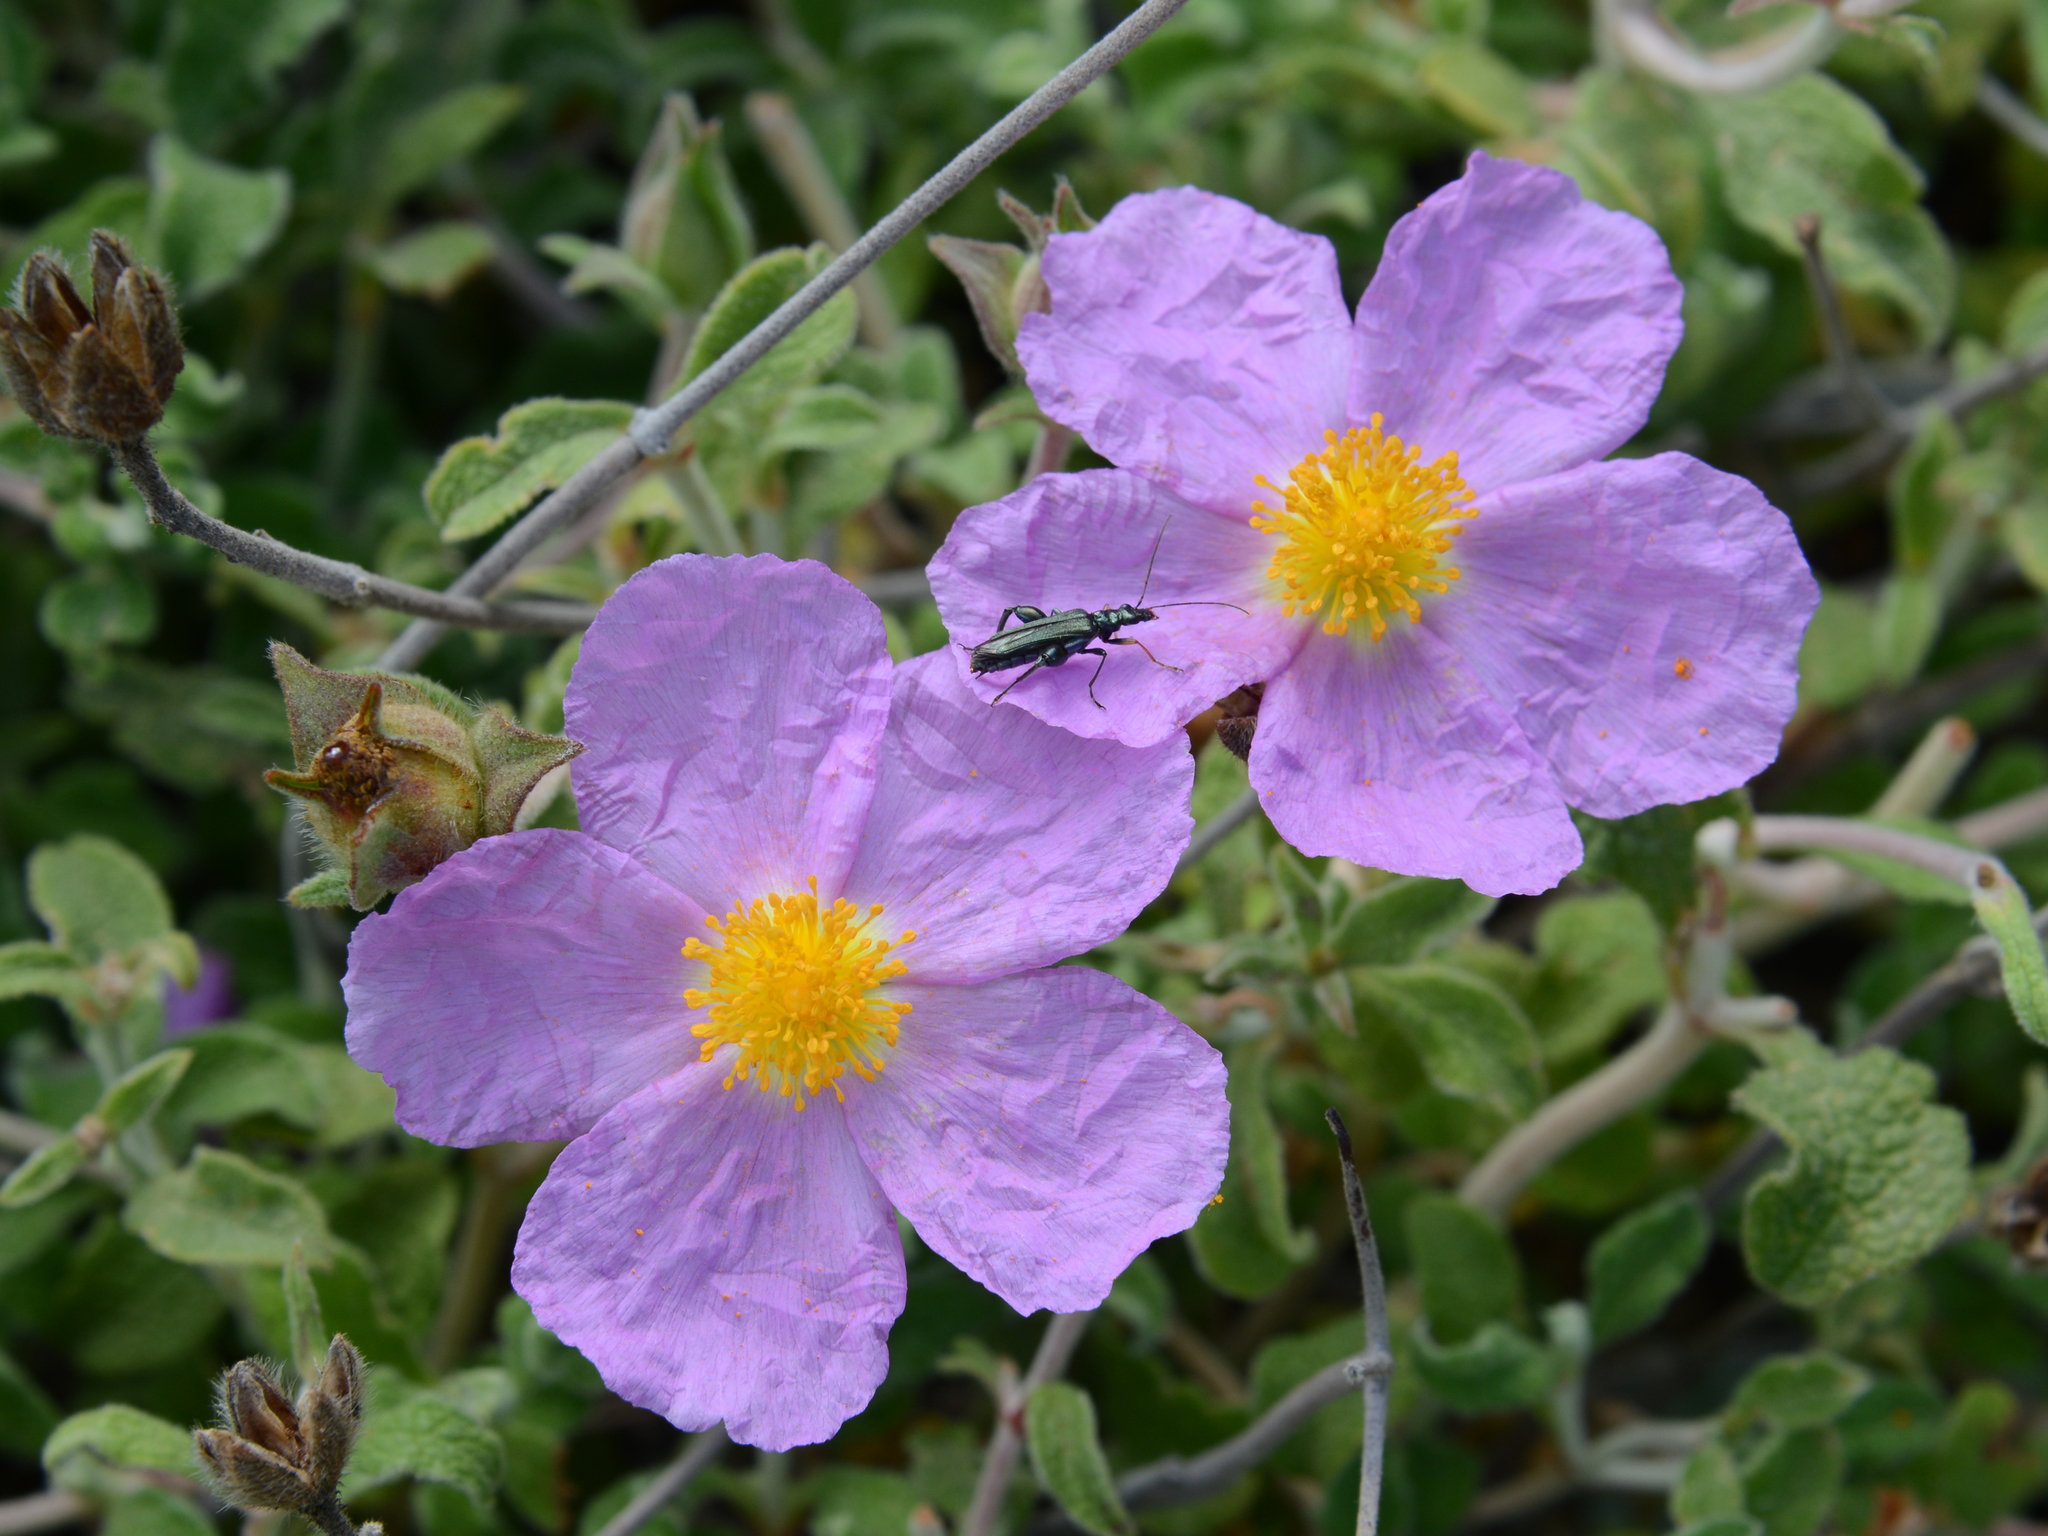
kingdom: Plantae
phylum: Tracheophyta
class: Magnoliopsida
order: Malvales
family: Cistaceae
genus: Cistus
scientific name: Cistus creticus
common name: Cretan rockrose
